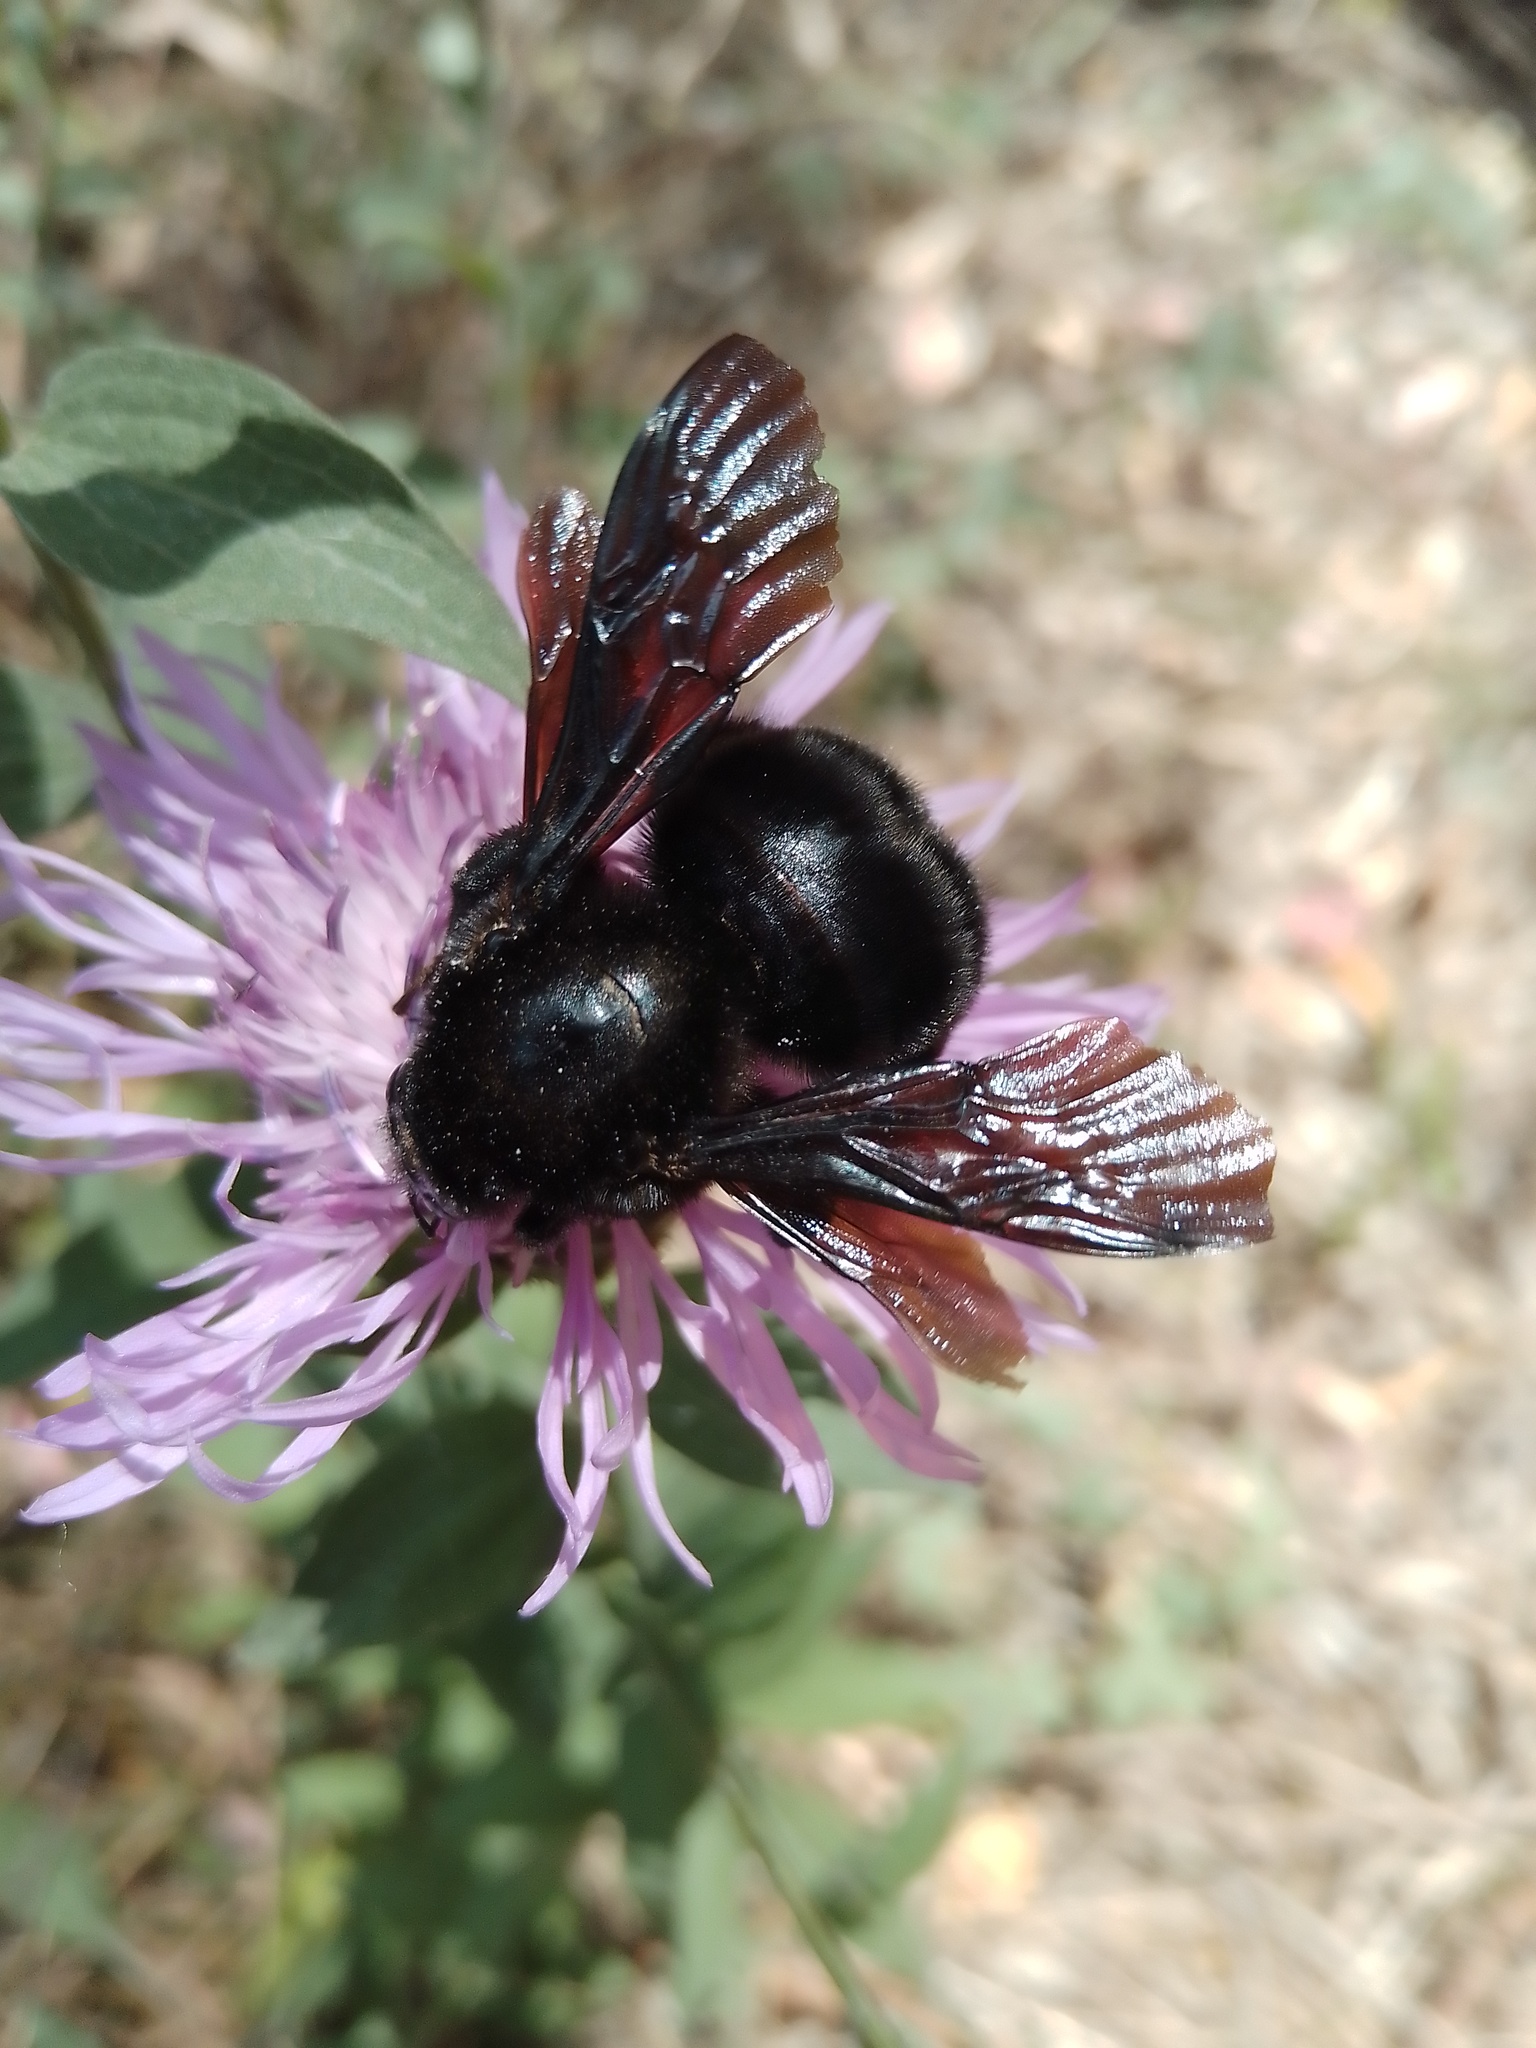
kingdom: Animalia
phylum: Arthropoda
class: Insecta
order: Hymenoptera
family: Apidae
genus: Bombus
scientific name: Bombus pauloensis
